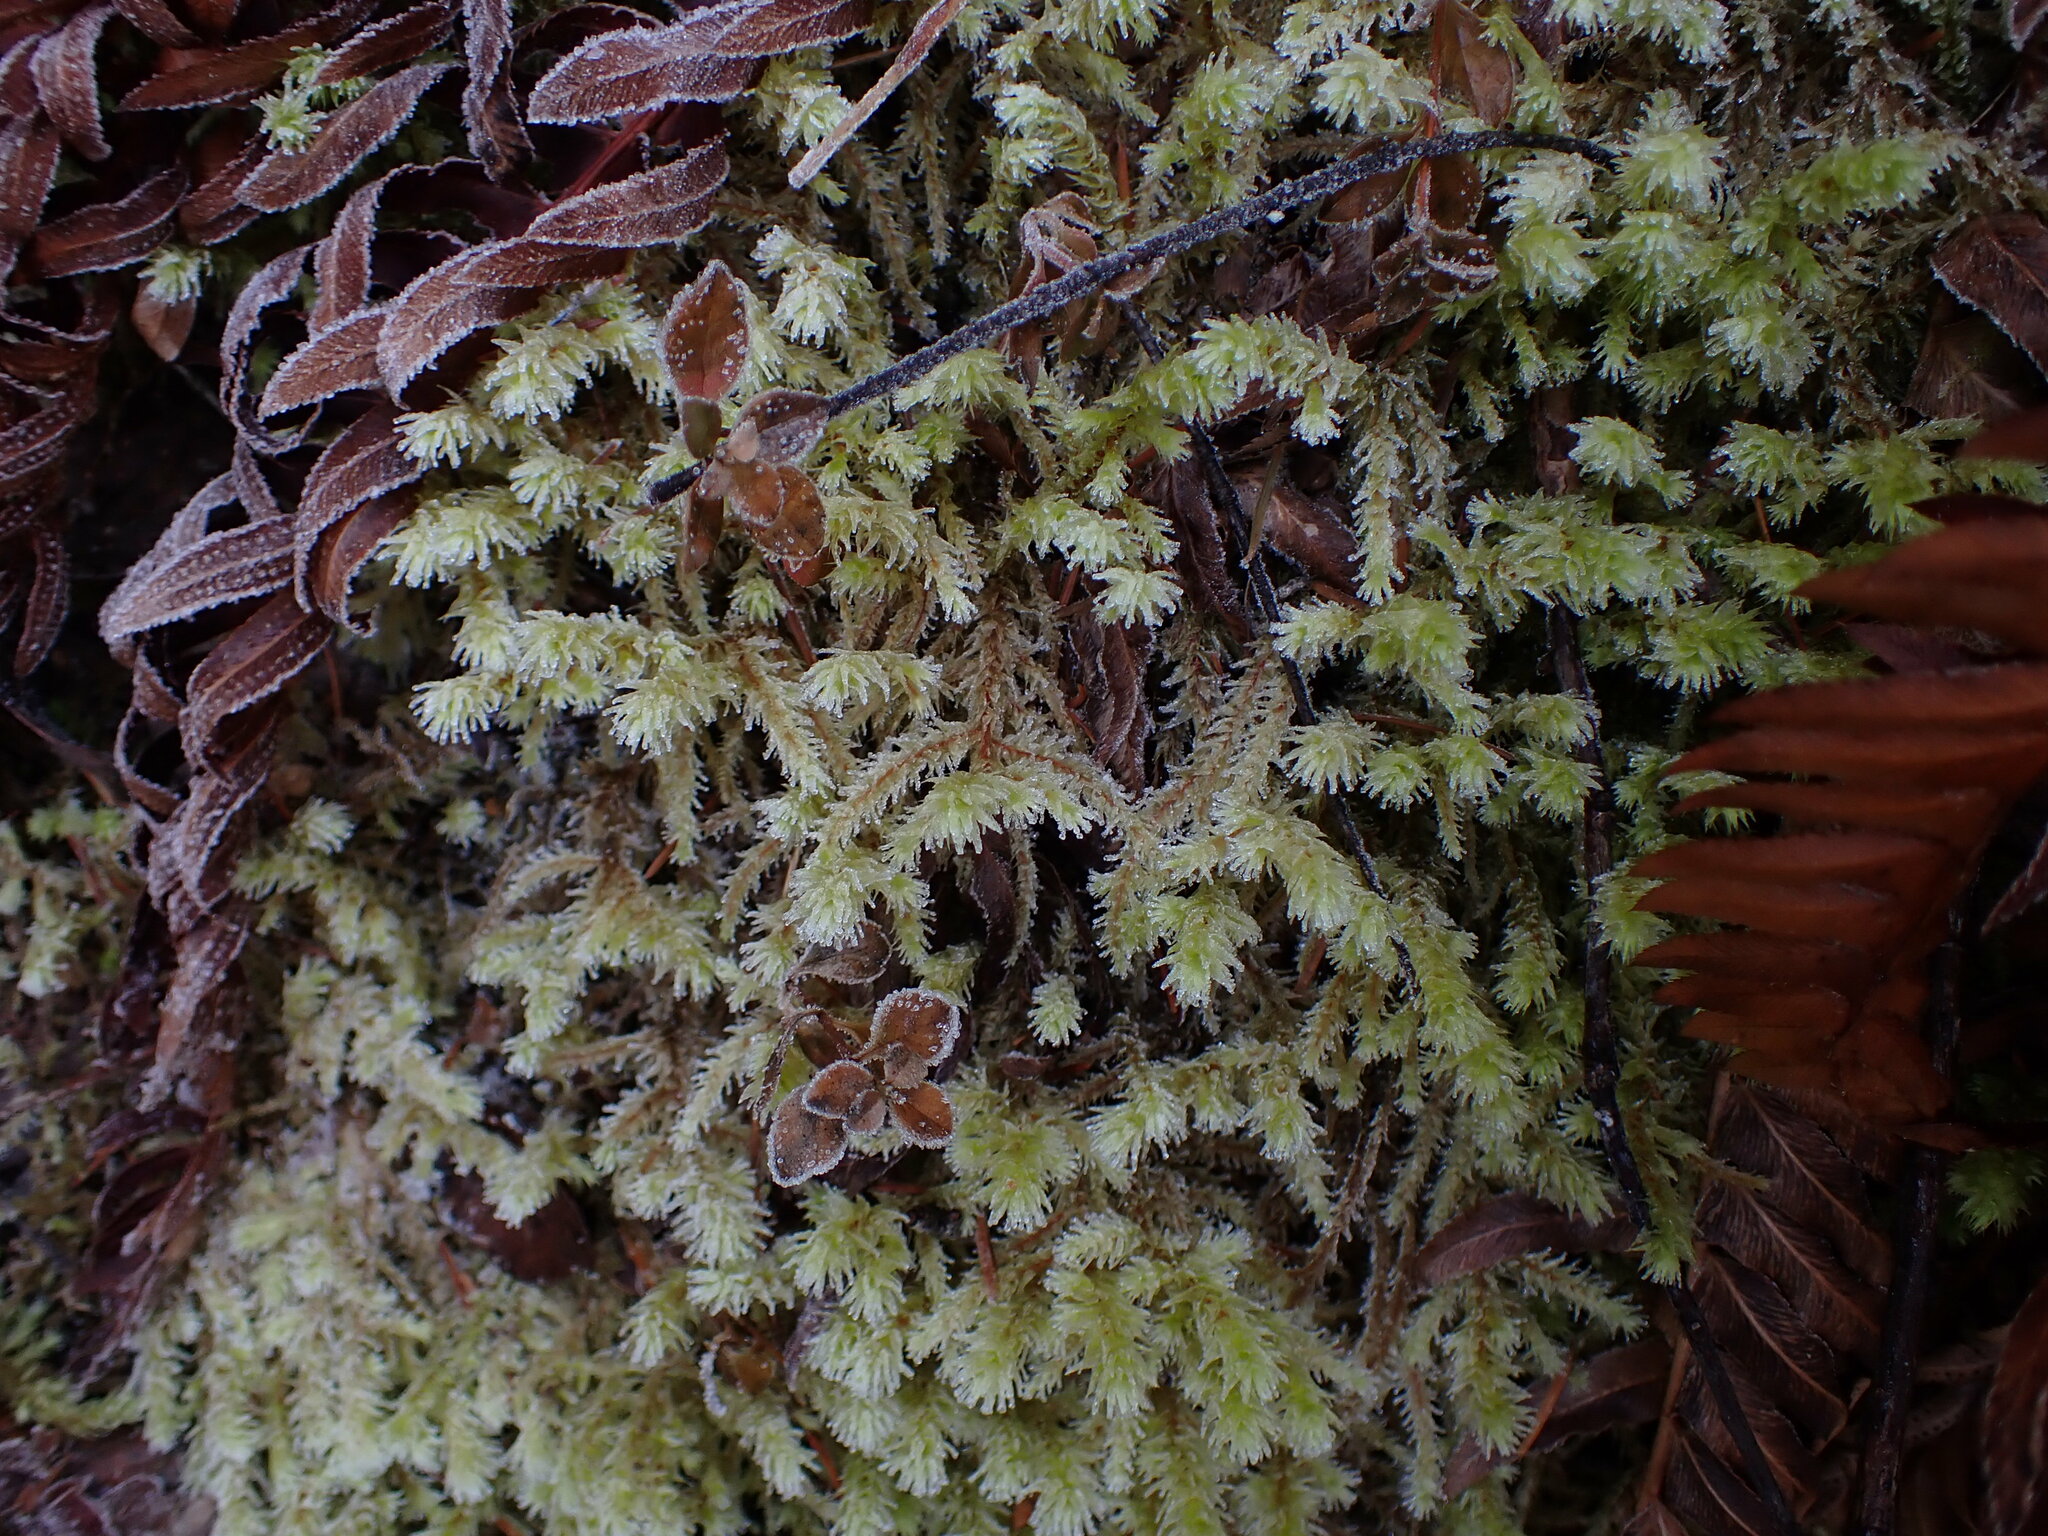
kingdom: Plantae
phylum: Bryophyta
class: Bryopsida
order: Hypnales
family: Hylocomiaceae
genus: Hylocomiadelphus
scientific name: Hylocomiadelphus triquetrus
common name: Rough goose neck moss
